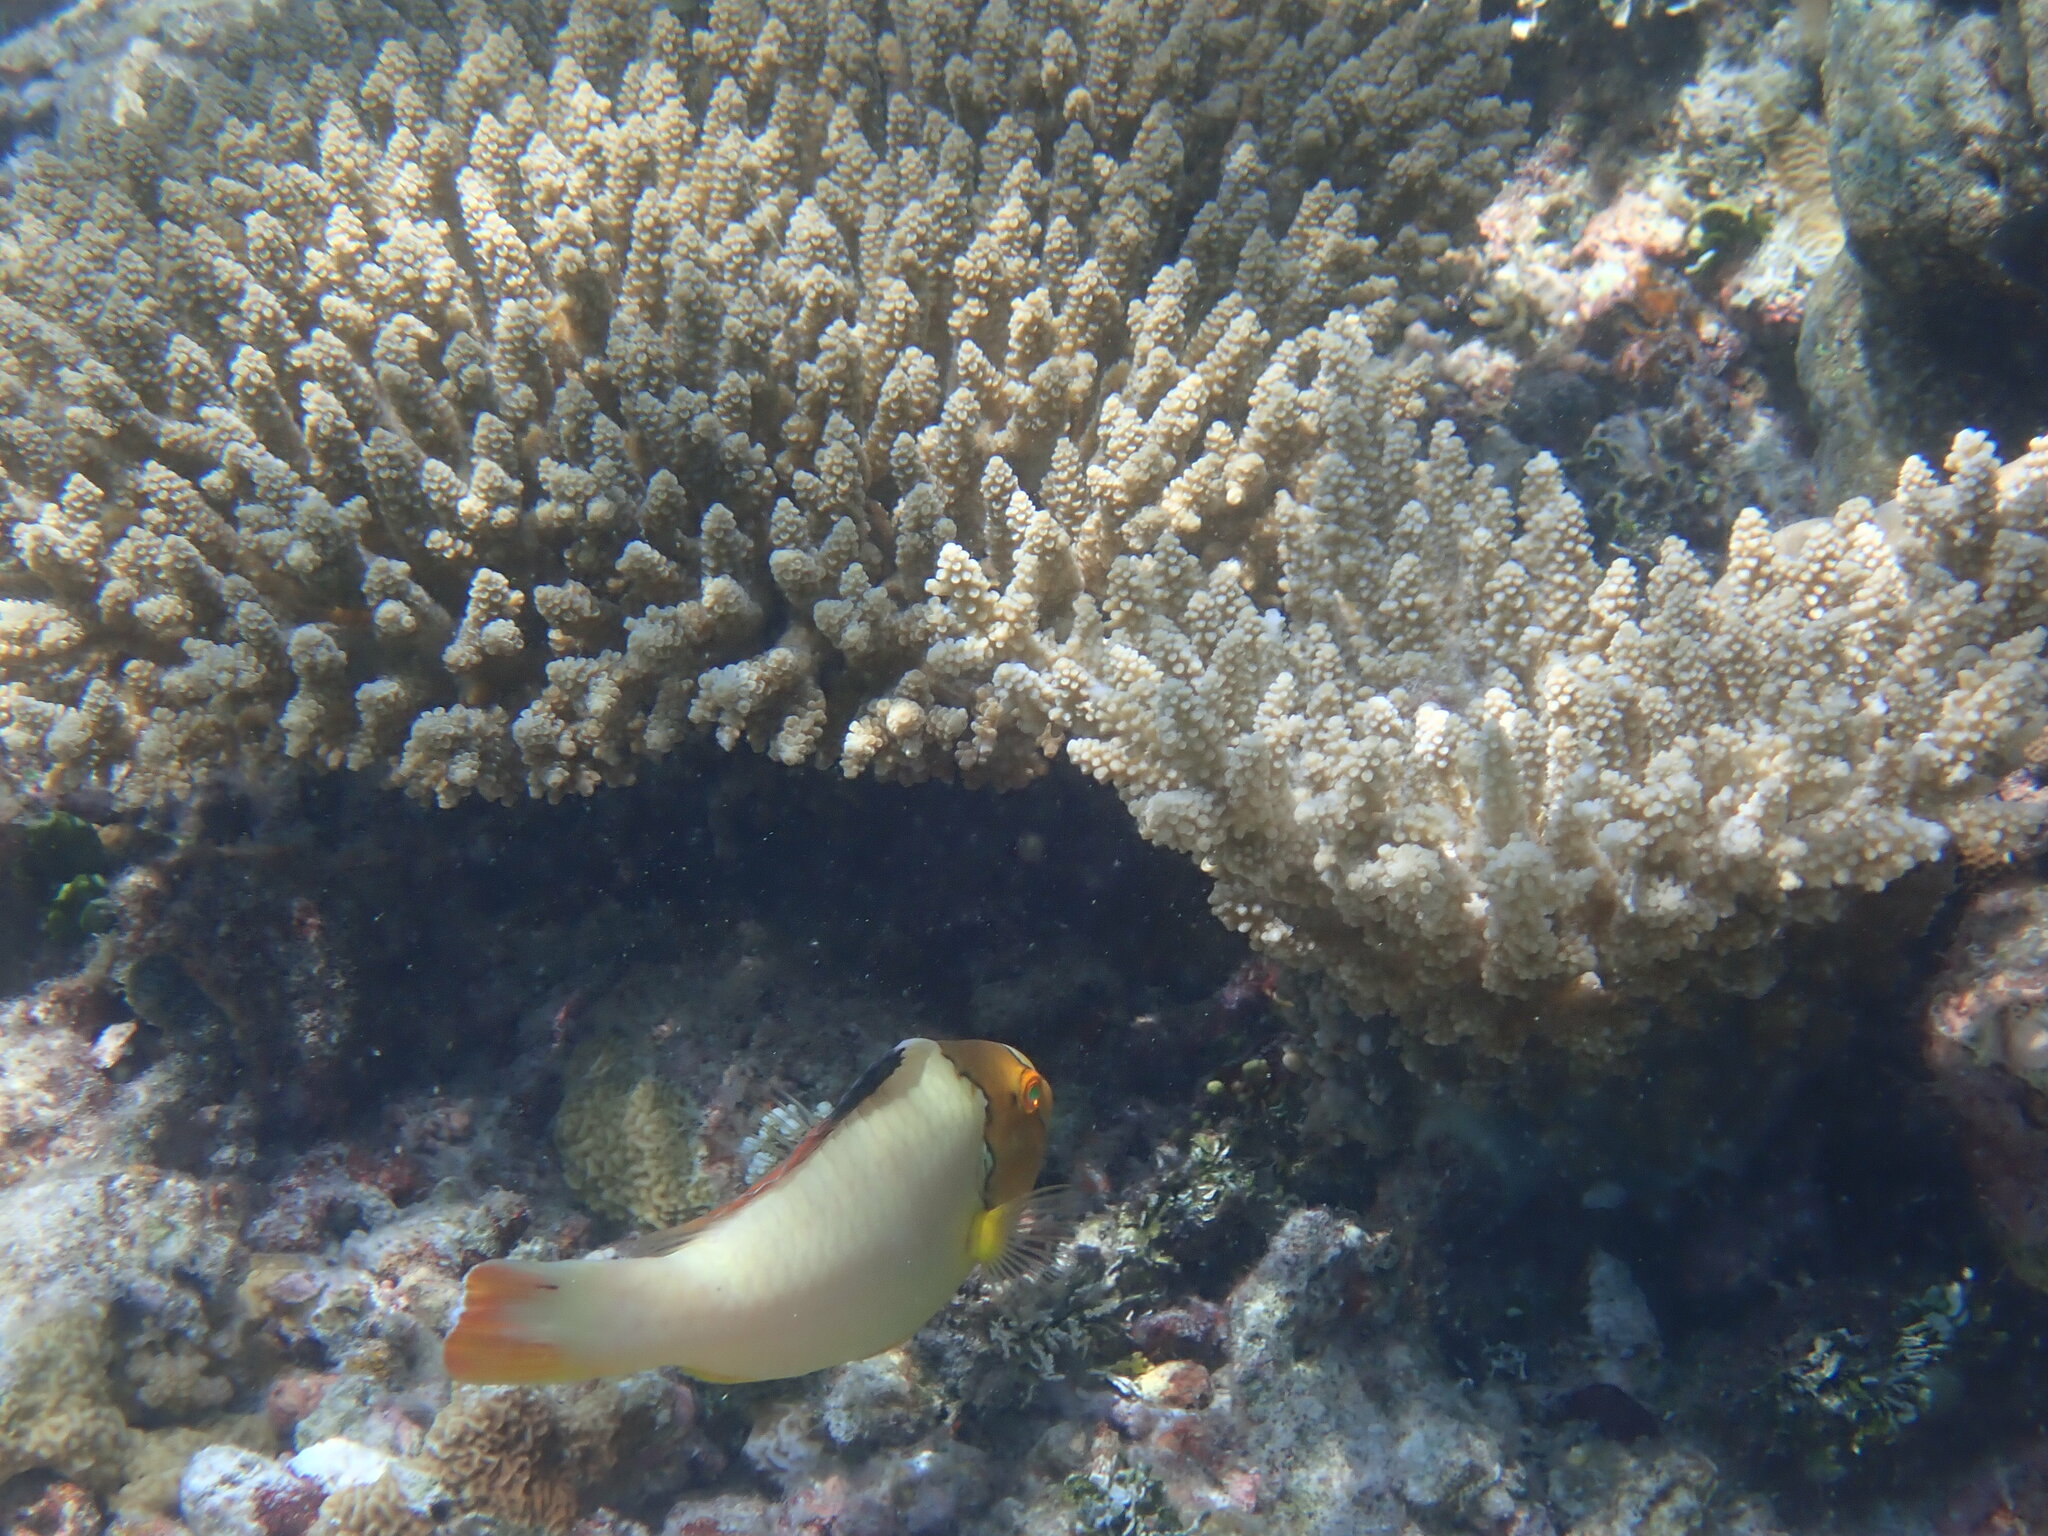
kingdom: Animalia
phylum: Chordata
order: Perciformes
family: Scaridae
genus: Cetoscarus
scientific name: Cetoscarus ocellatus
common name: Bicolor parrotfish
